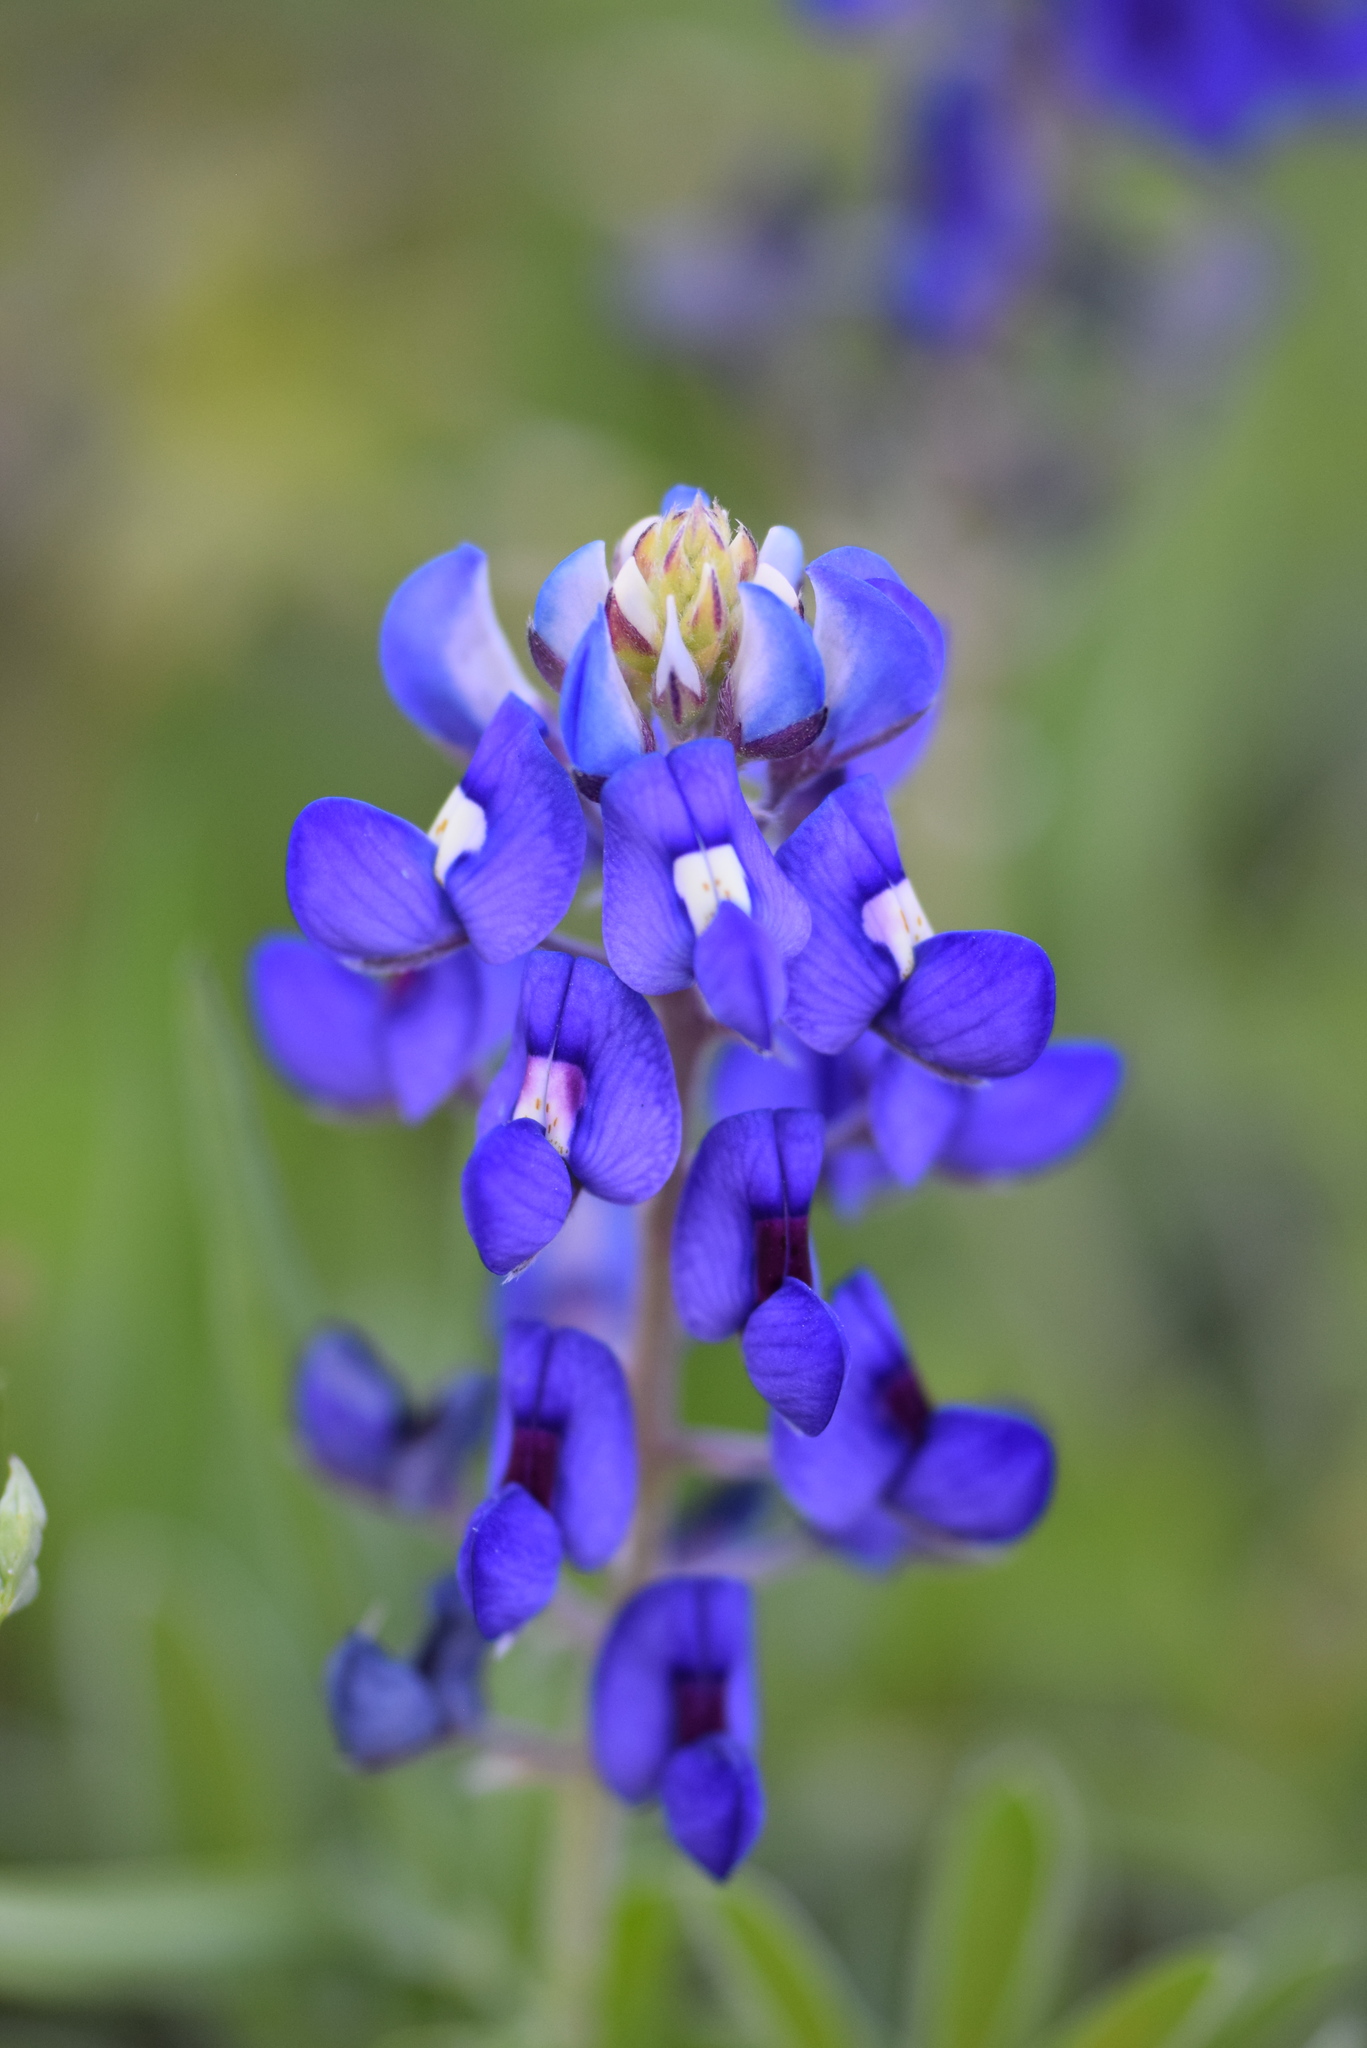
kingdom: Plantae
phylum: Tracheophyta
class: Magnoliopsida
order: Fabales
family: Fabaceae
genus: Lupinus
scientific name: Lupinus texensis
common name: Texas bluebonnet
